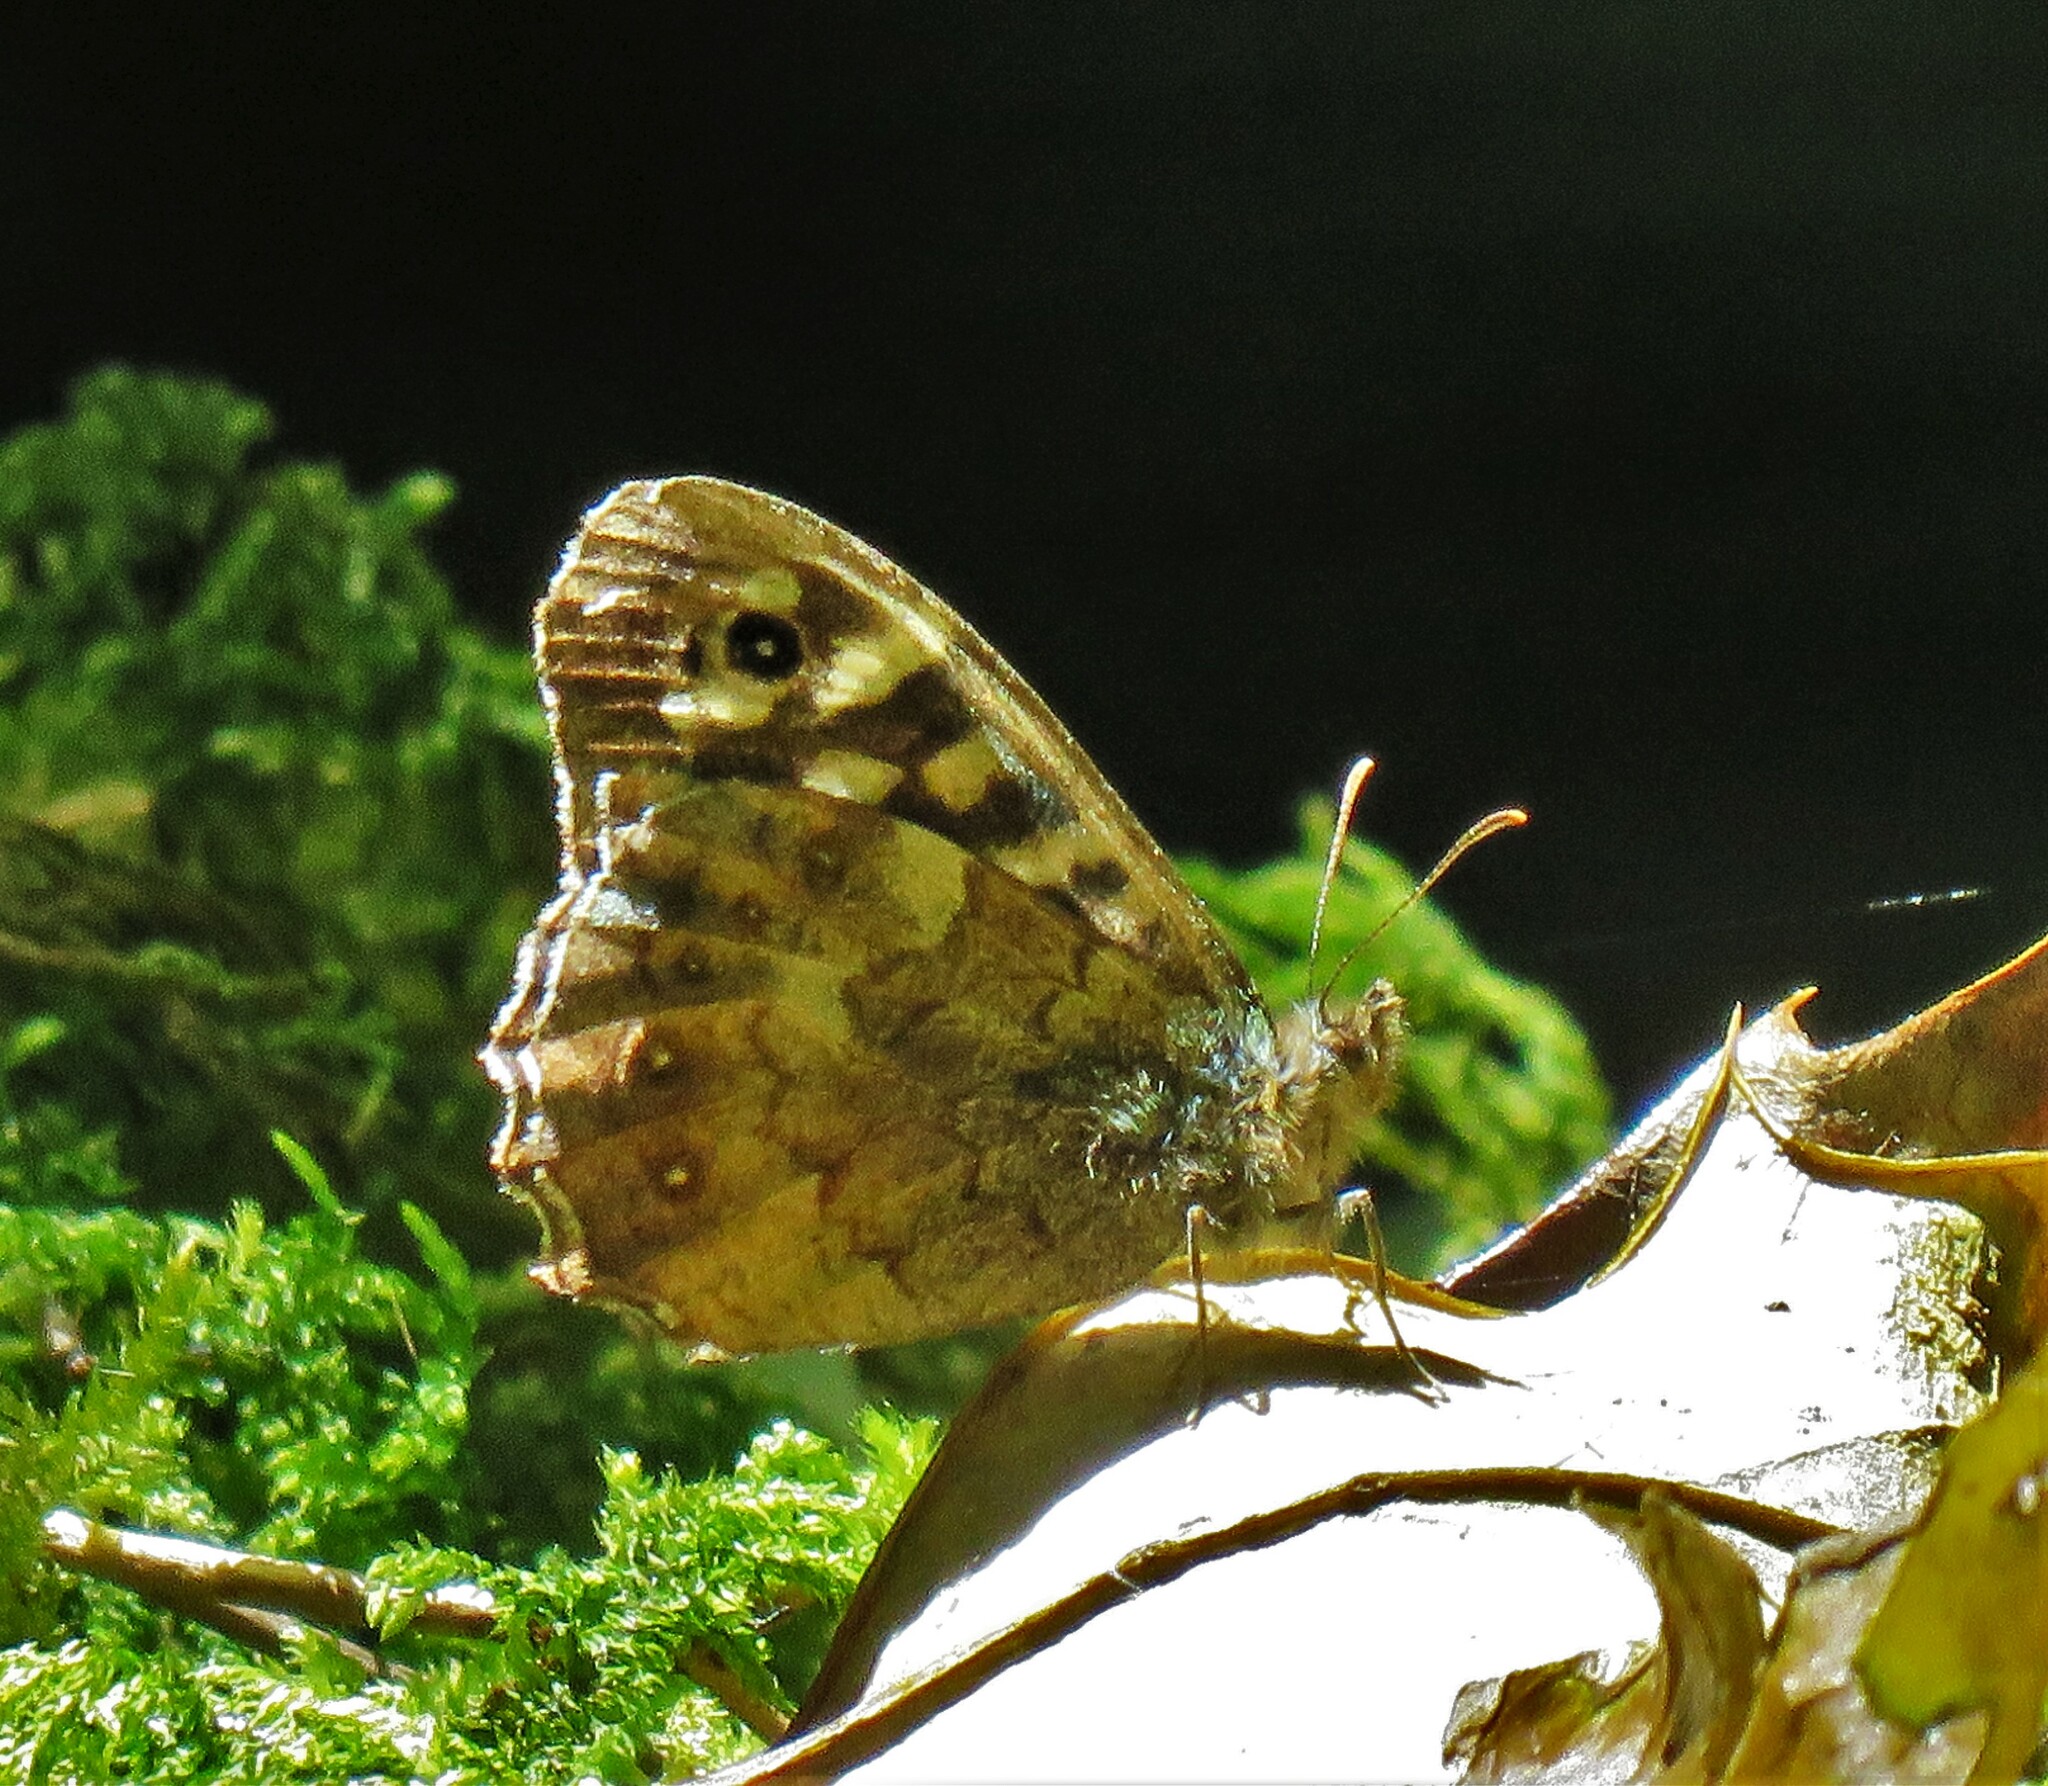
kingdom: Animalia
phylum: Arthropoda
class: Insecta
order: Lepidoptera
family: Nymphalidae
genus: Pararge
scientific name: Pararge aegeria
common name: Speckled wood
